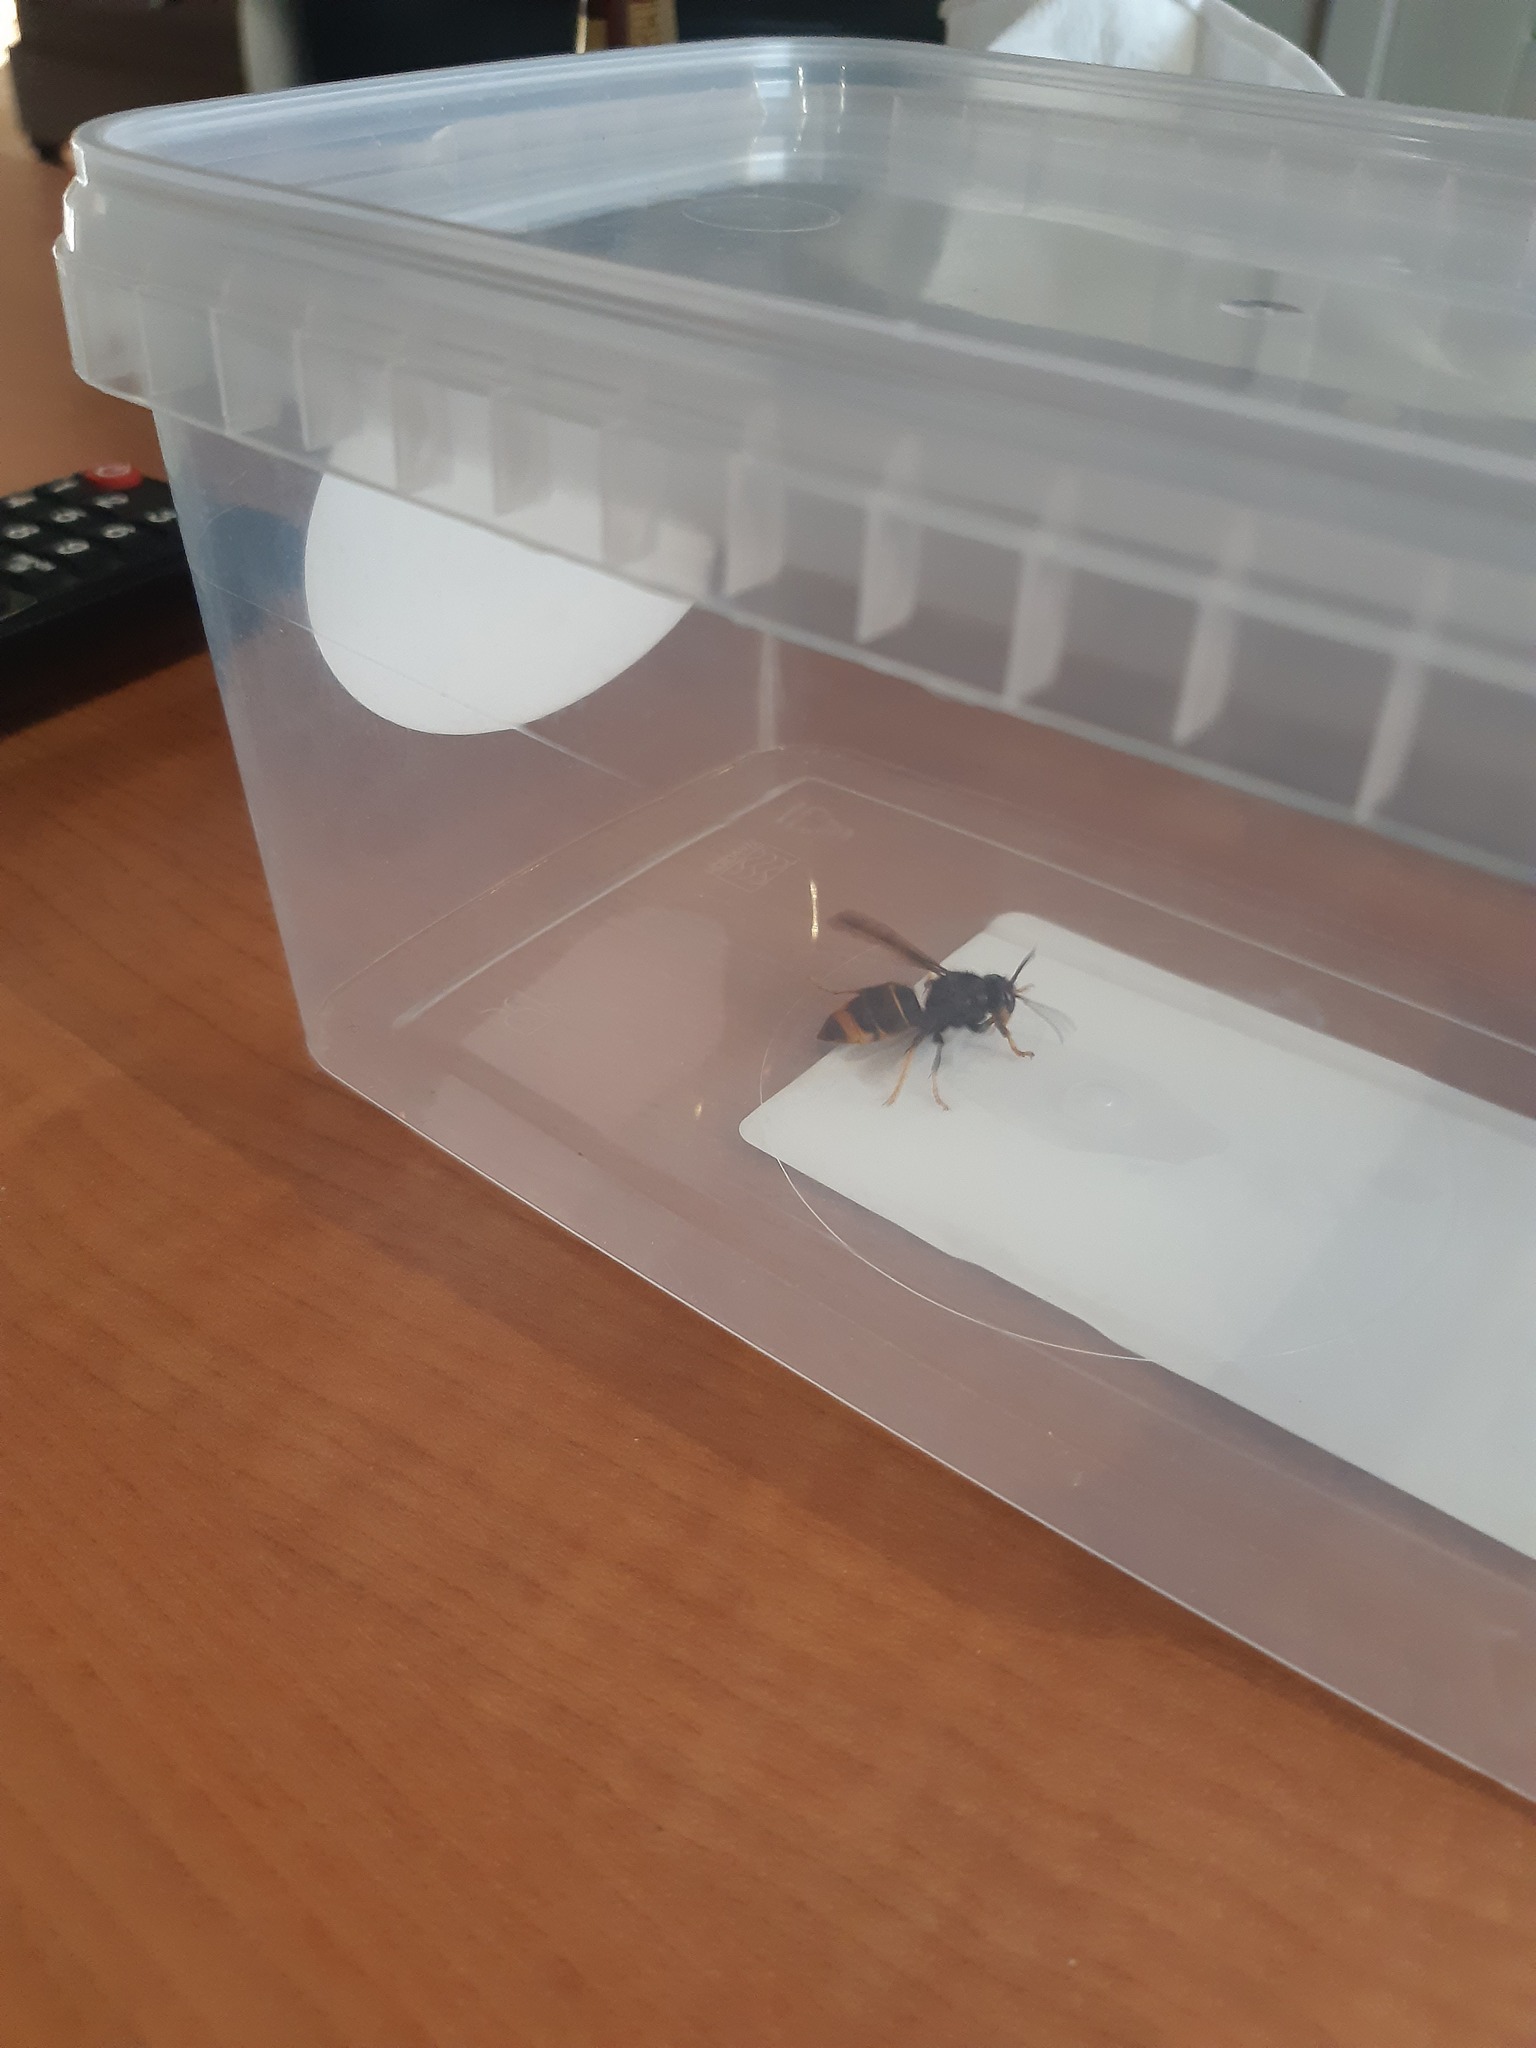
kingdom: Animalia
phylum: Arthropoda
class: Insecta
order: Hymenoptera
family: Vespidae
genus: Vespa
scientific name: Vespa velutina
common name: Asian hornet
